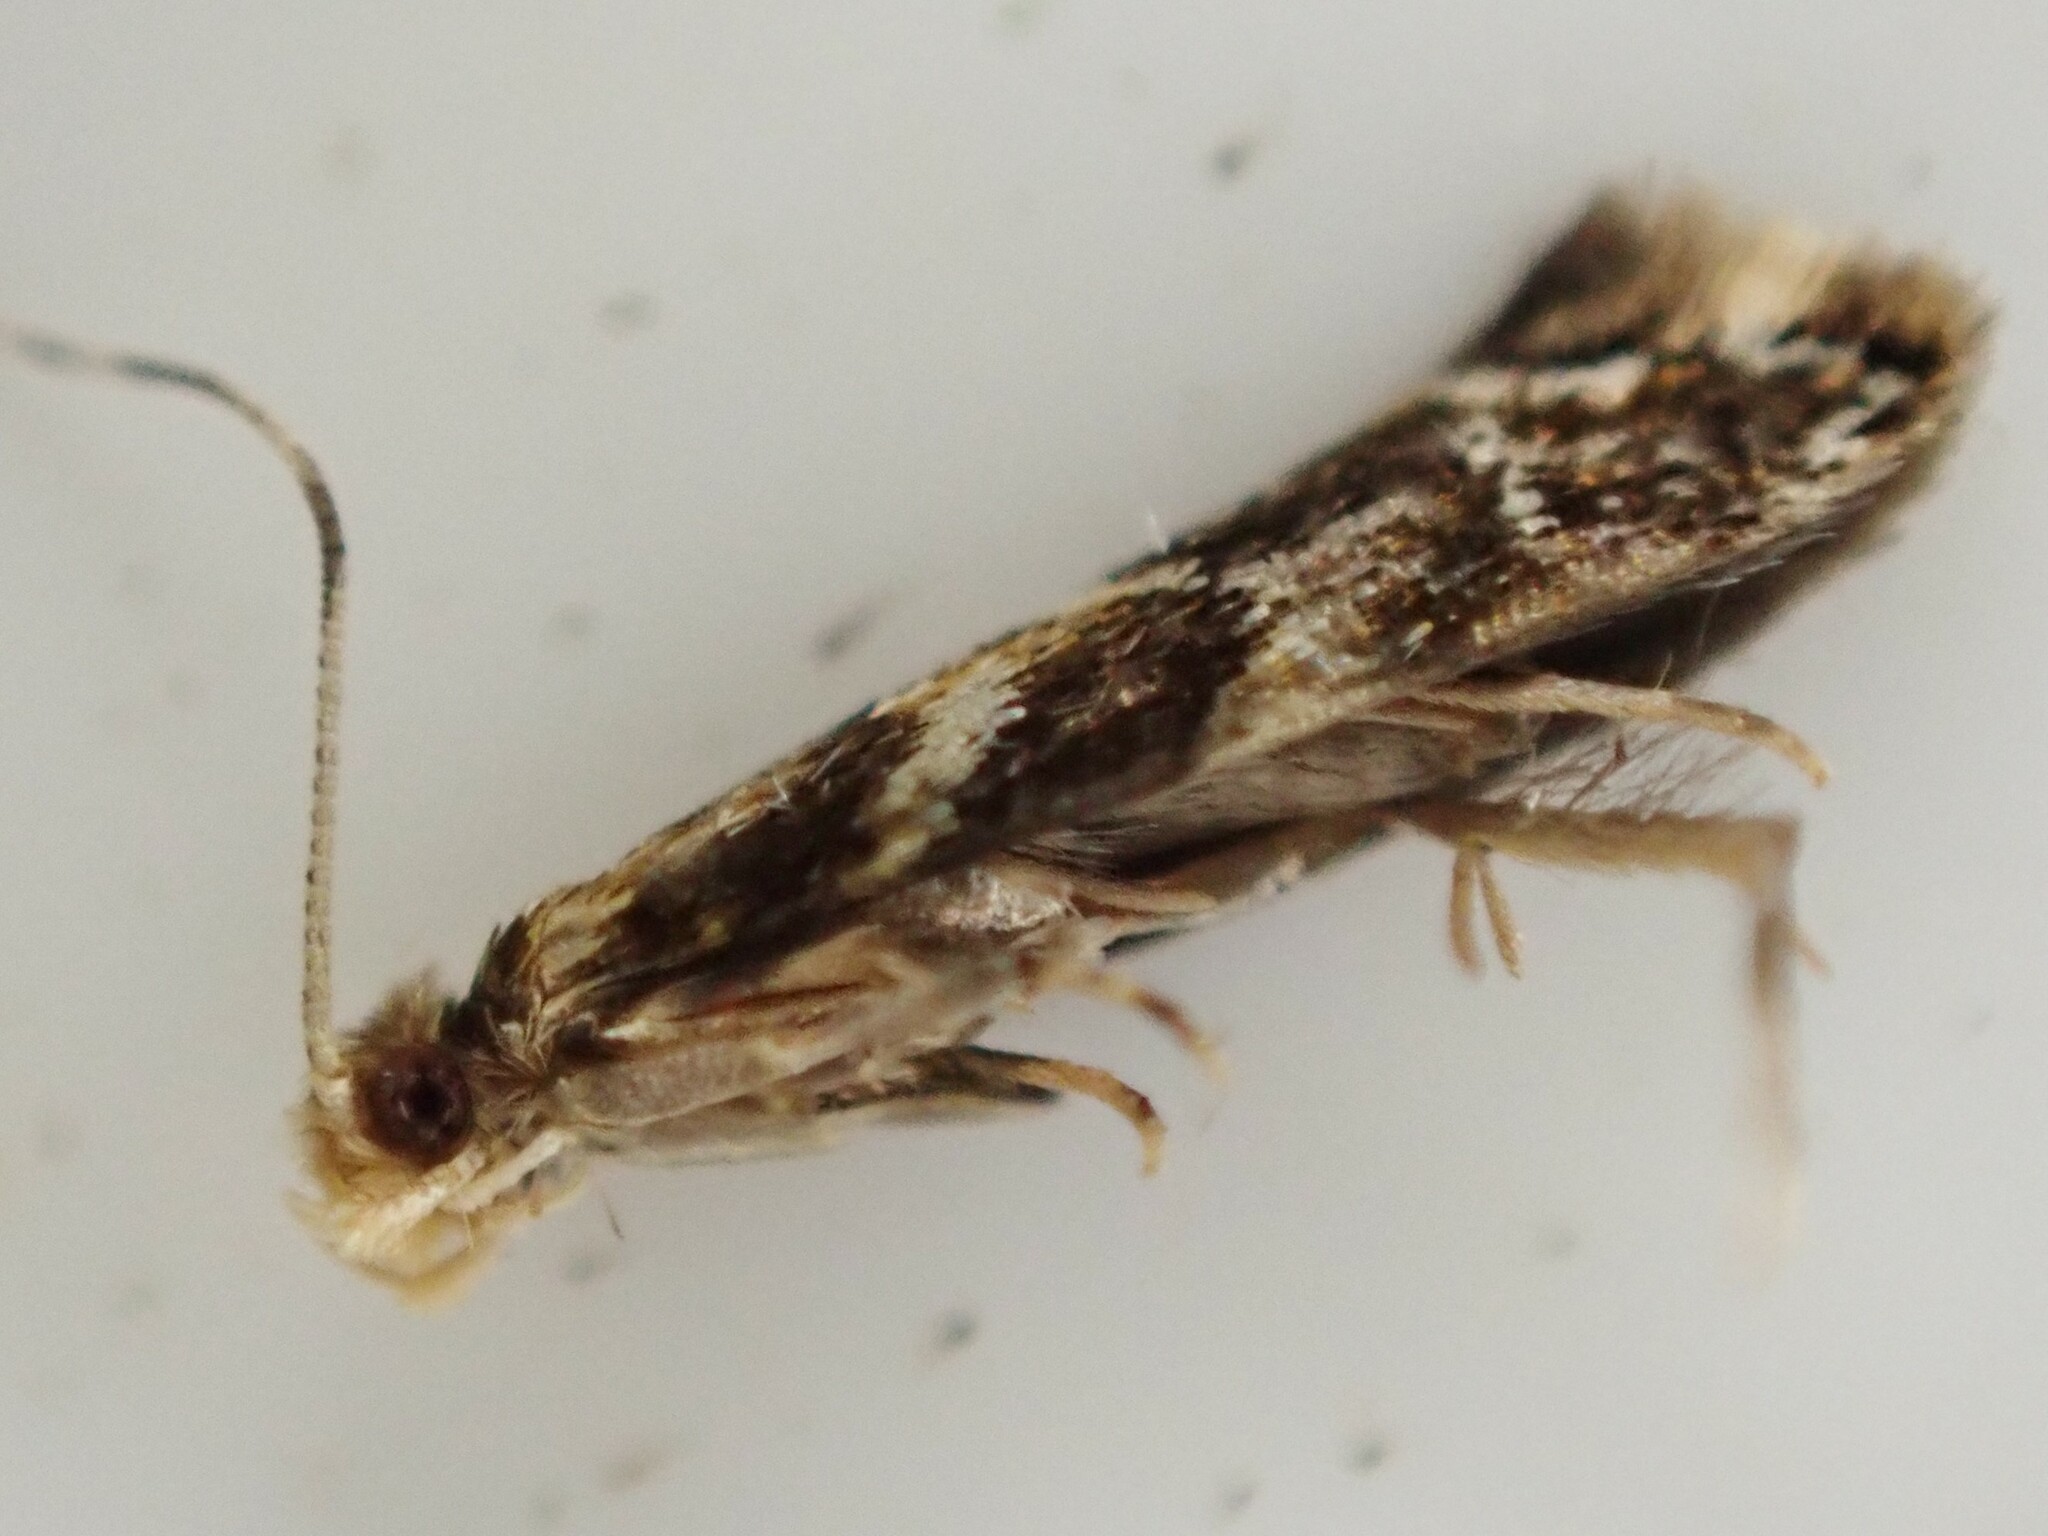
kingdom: Animalia
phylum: Arthropoda
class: Insecta
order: Lepidoptera
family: Dryadaulidae
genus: Dryadaula
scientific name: Dryadaula pactolia
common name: Cellar clothes
